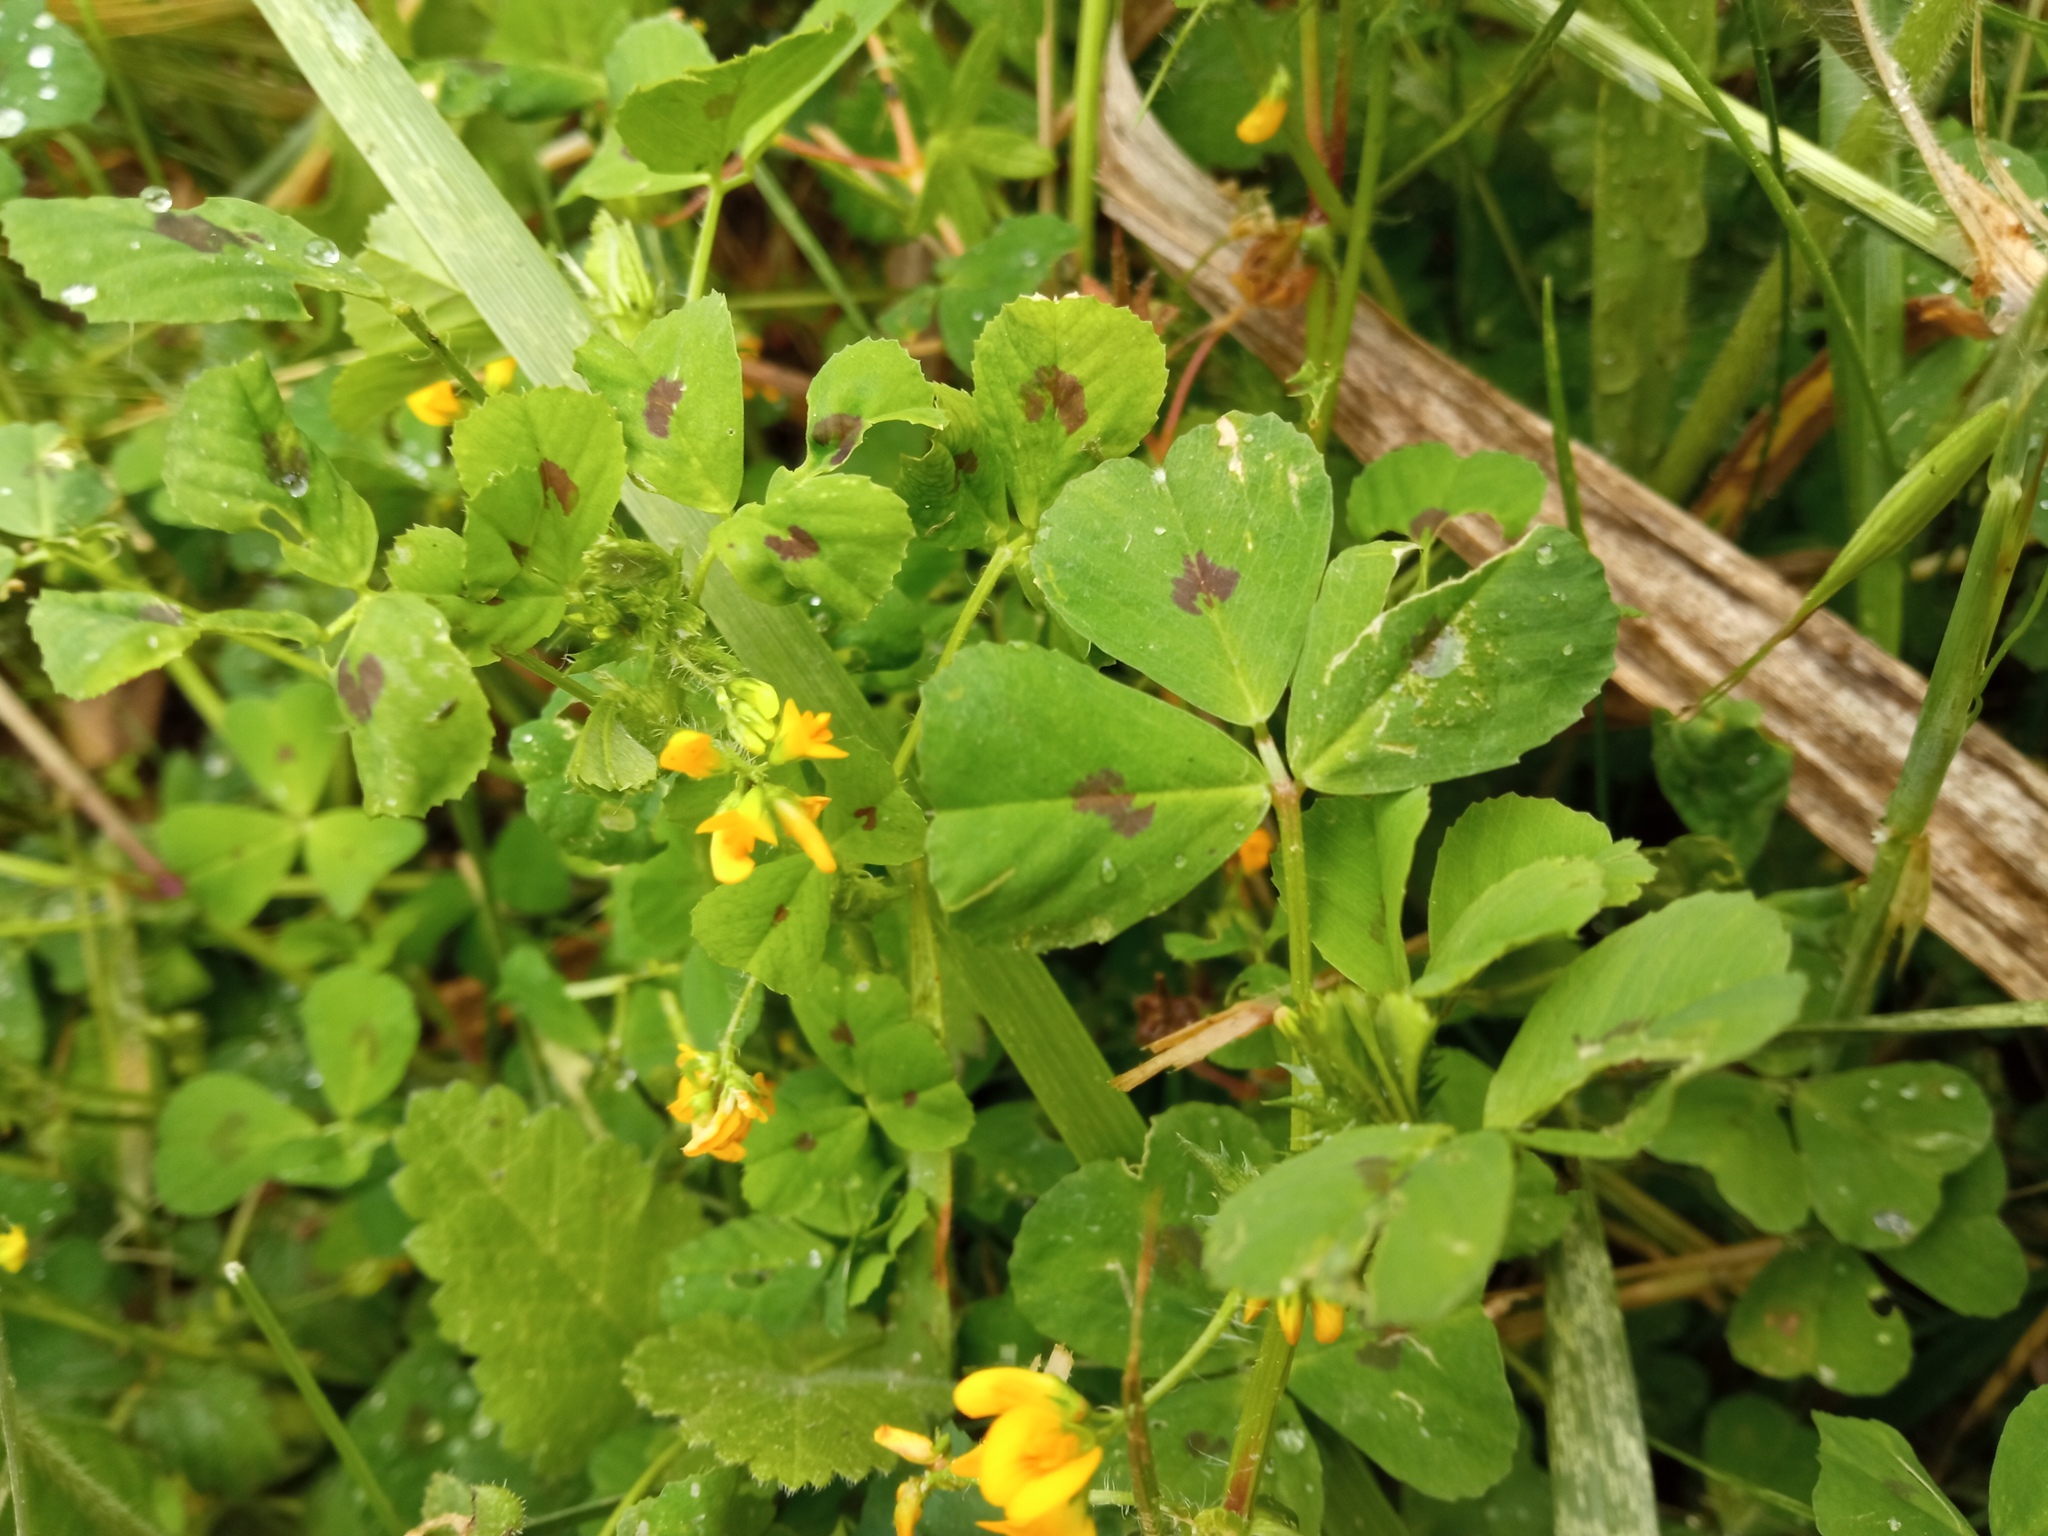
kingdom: Plantae
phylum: Tracheophyta
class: Magnoliopsida
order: Fabales
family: Fabaceae
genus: Medicago
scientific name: Medicago arabica
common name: Spotted medick
